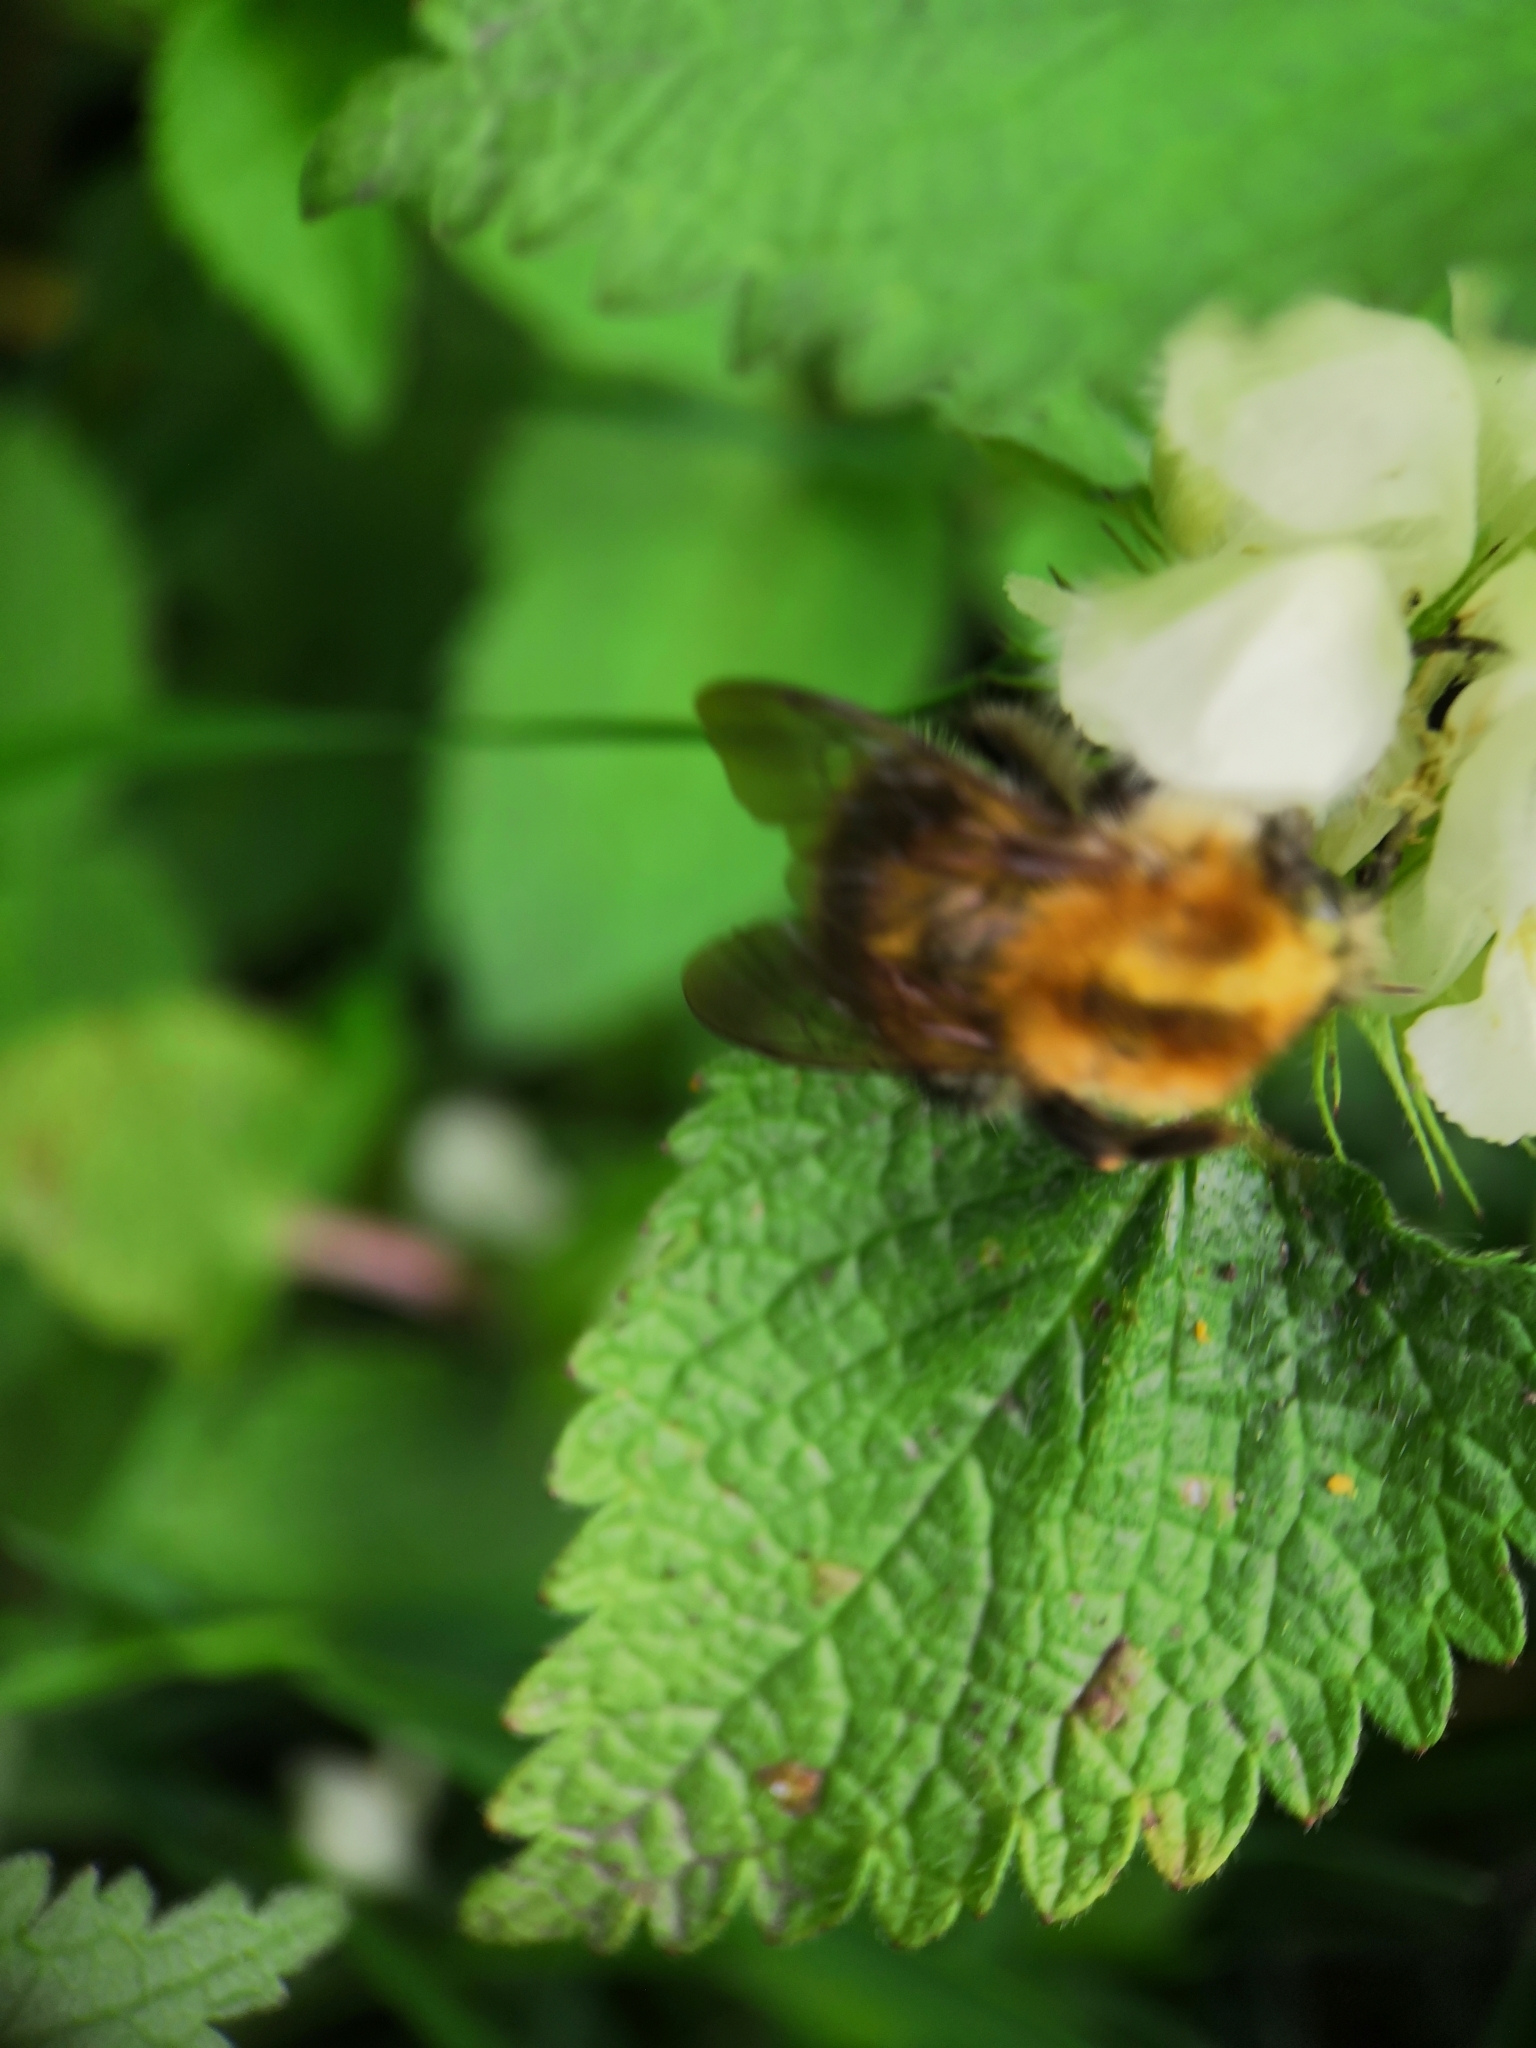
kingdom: Animalia
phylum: Arthropoda
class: Insecta
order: Hymenoptera
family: Apidae
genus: Bombus
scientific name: Bombus pascuorum
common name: Common carder bee
